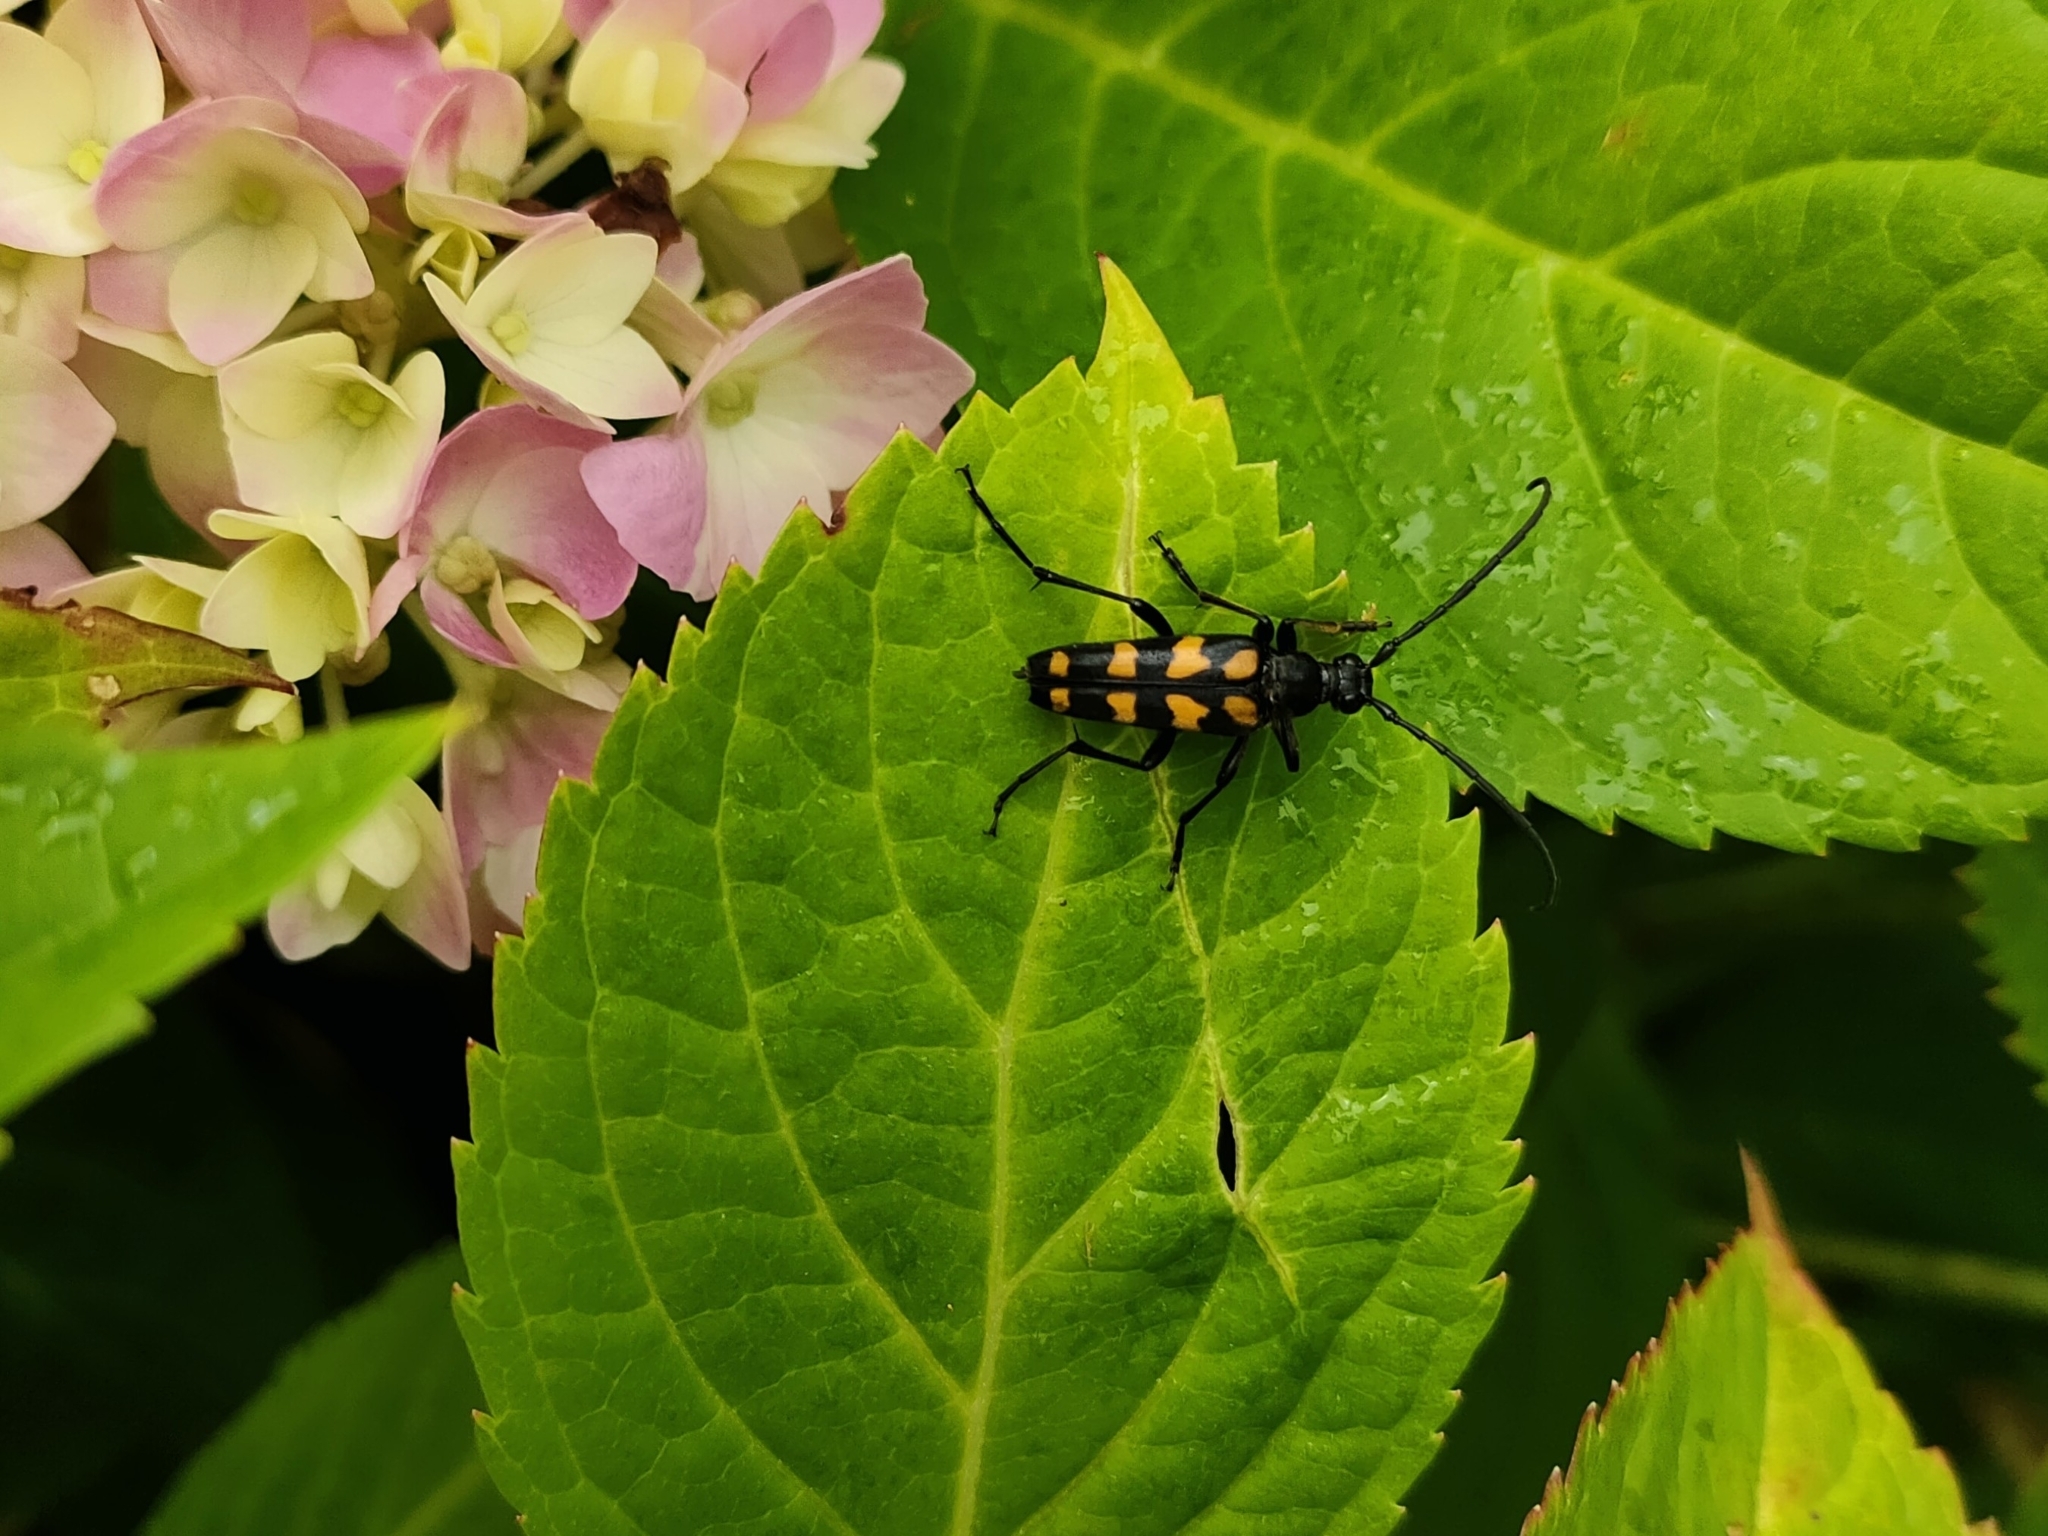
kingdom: Animalia
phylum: Arthropoda
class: Insecta
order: Coleoptera
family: Cerambycidae
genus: Leptura
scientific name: Leptura quadrifasciata
